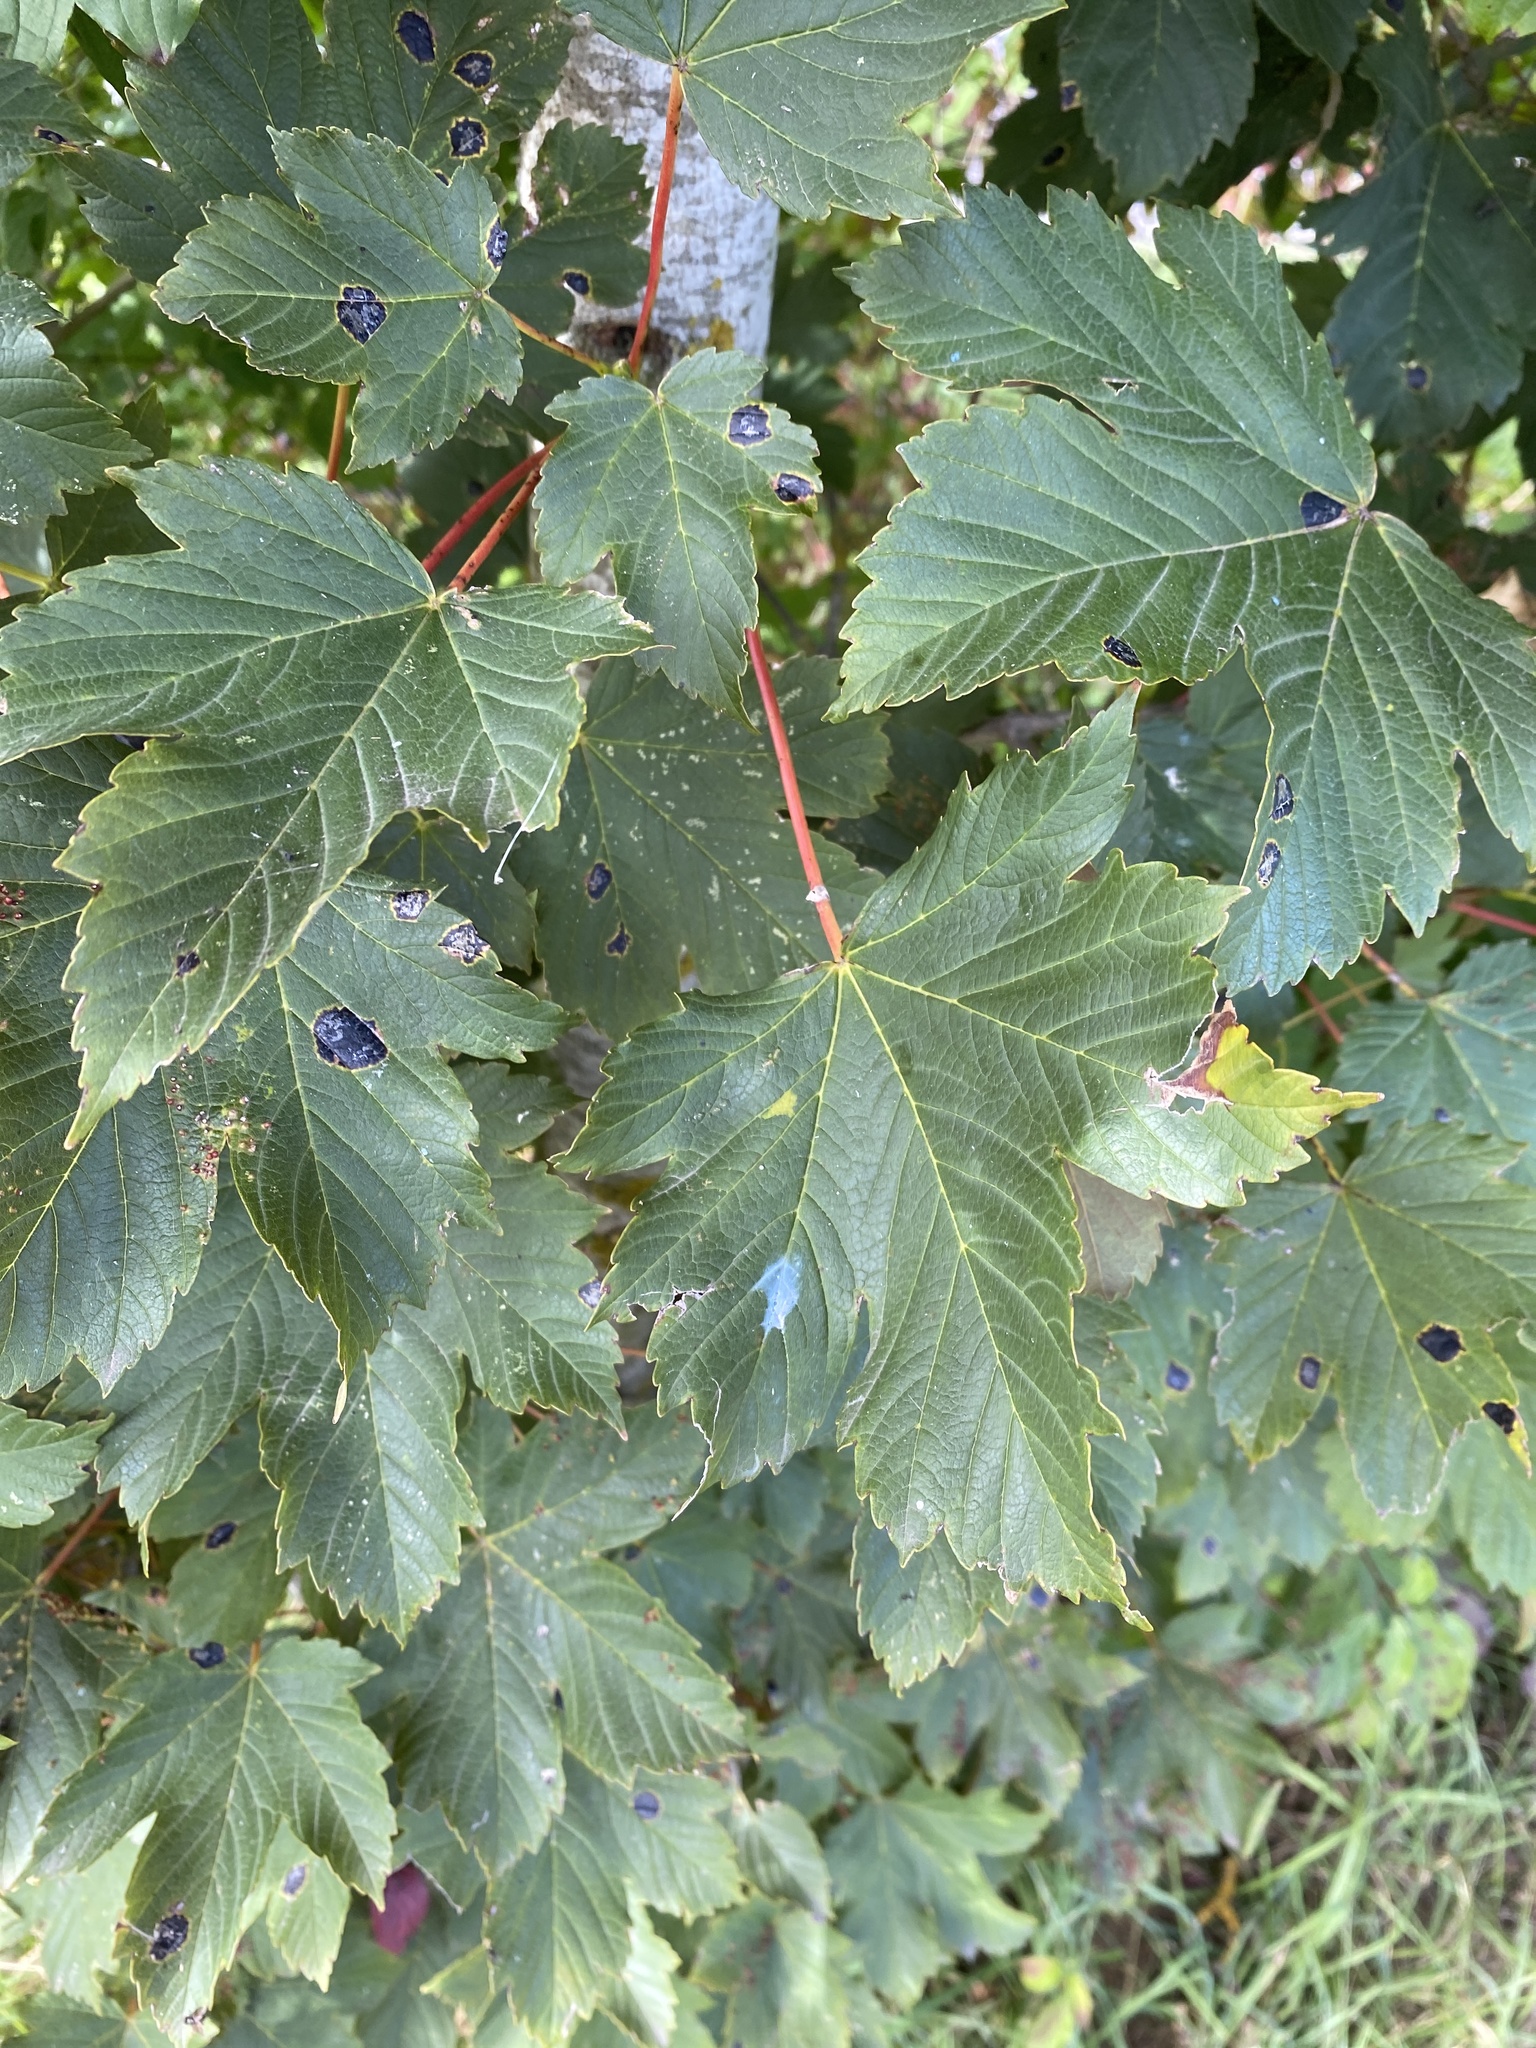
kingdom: Plantae
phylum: Tracheophyta
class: Magnoliopsida
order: Sapindales
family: Sapindaceae
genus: Acer
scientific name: Acer pseudoplatanus
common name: Sycamore
